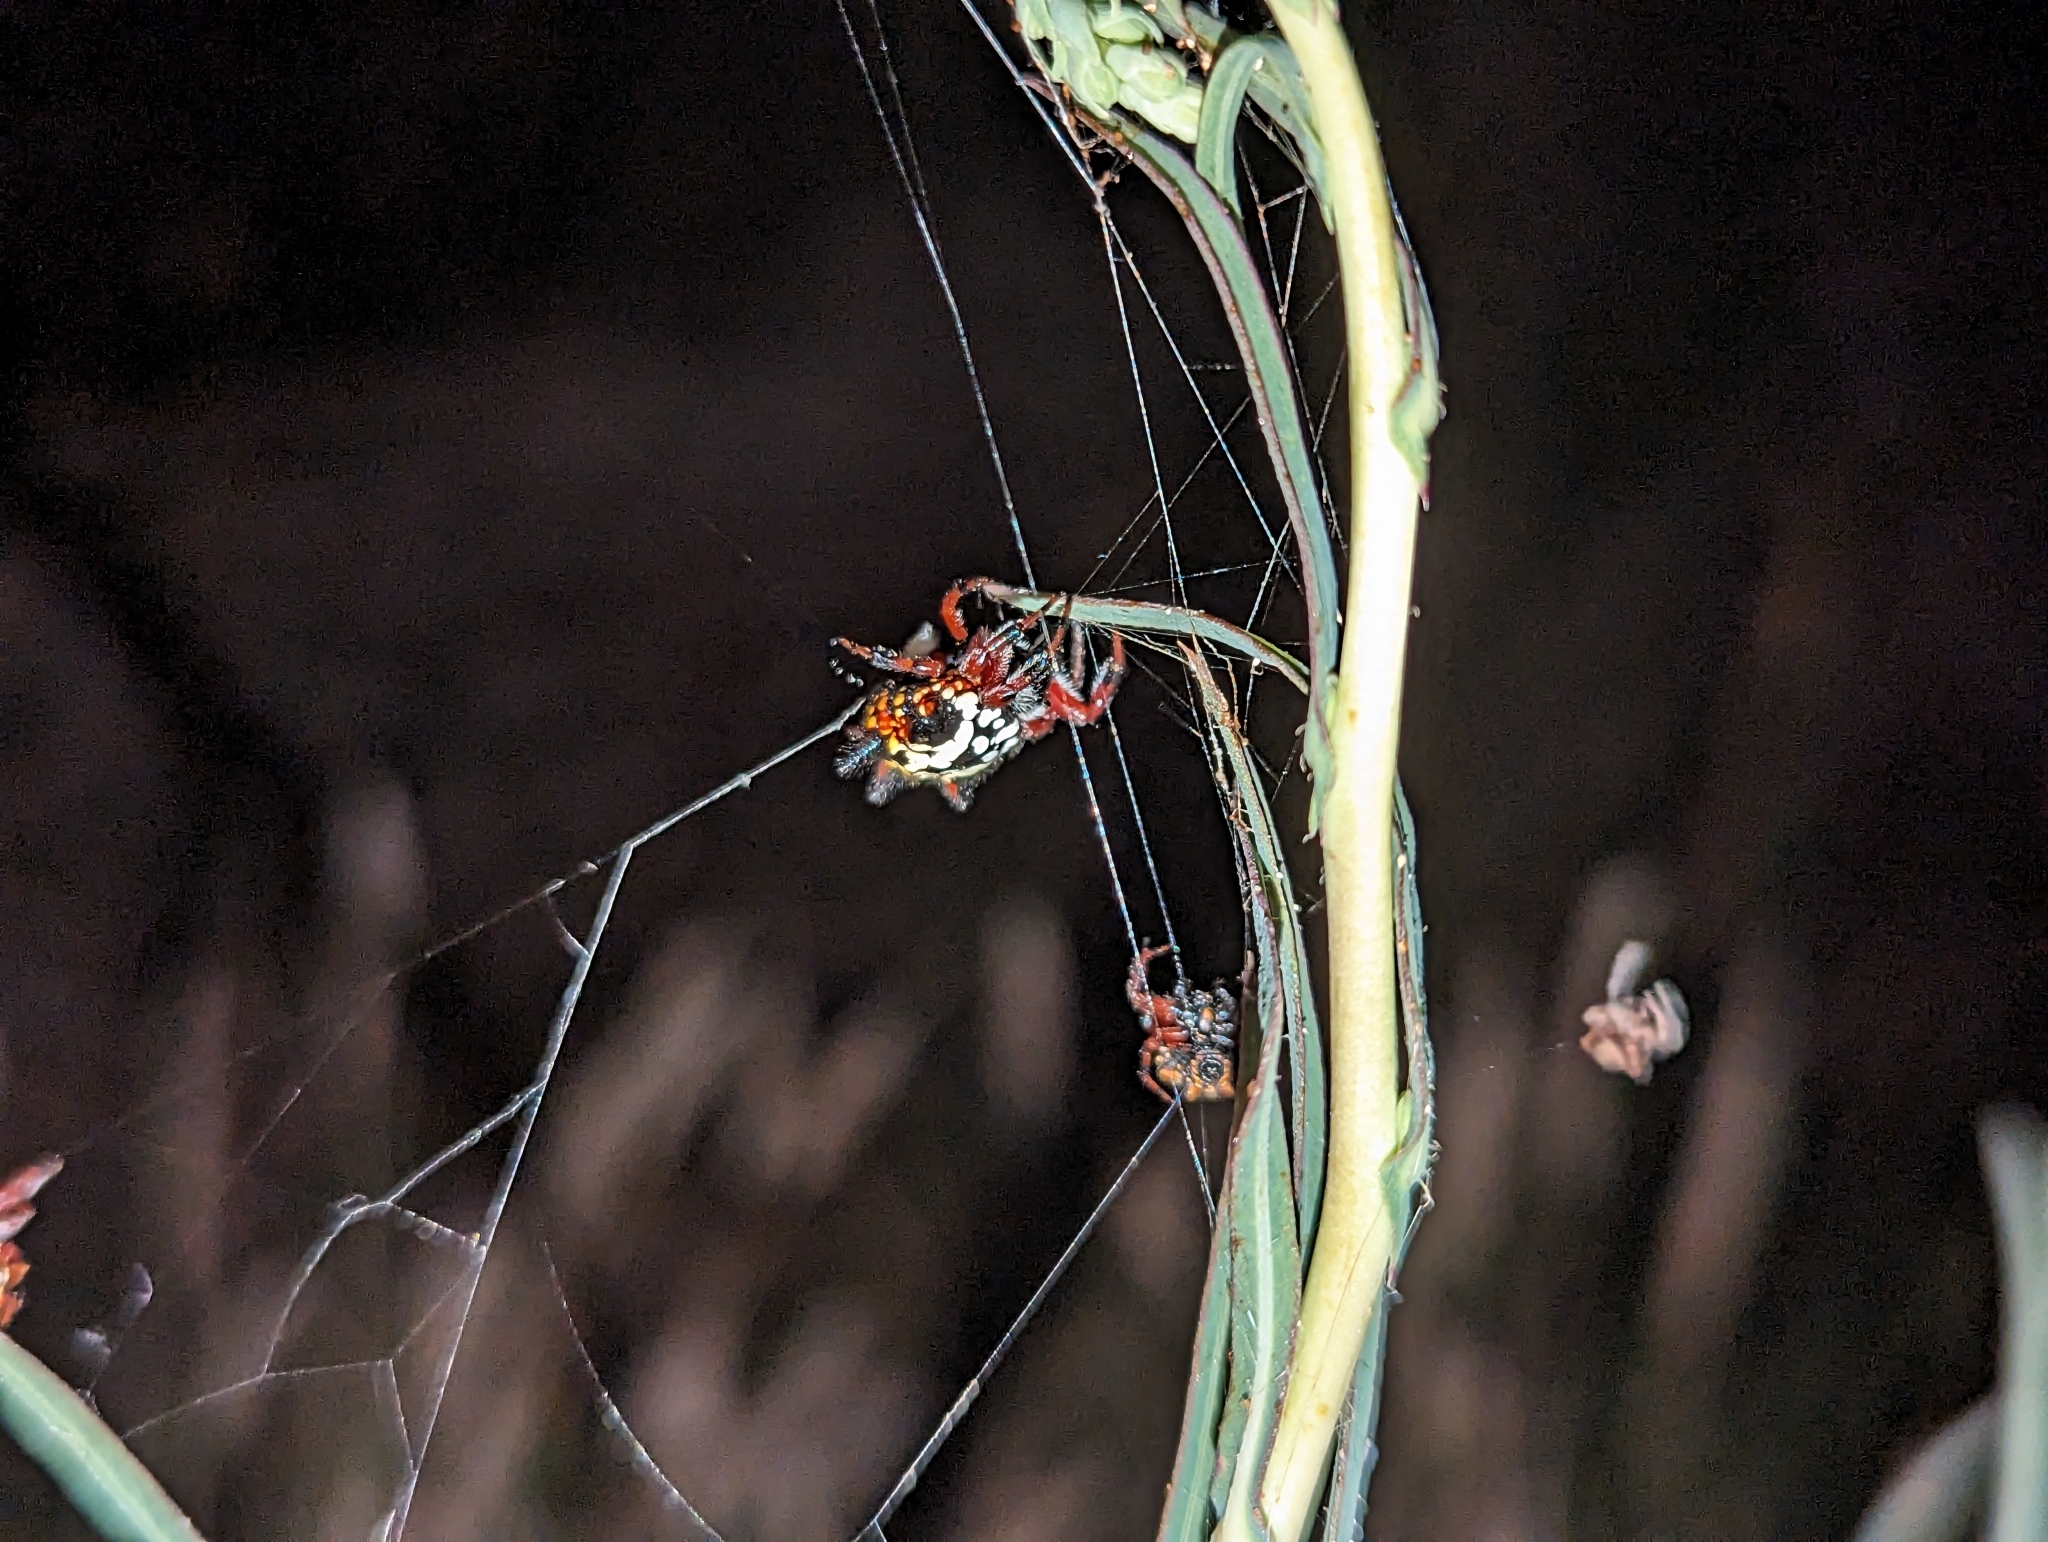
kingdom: Animalia
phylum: Arthropoda
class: Arachnida
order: Araneae
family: Araneidae
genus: Austracantha
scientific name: Austracantha minax
